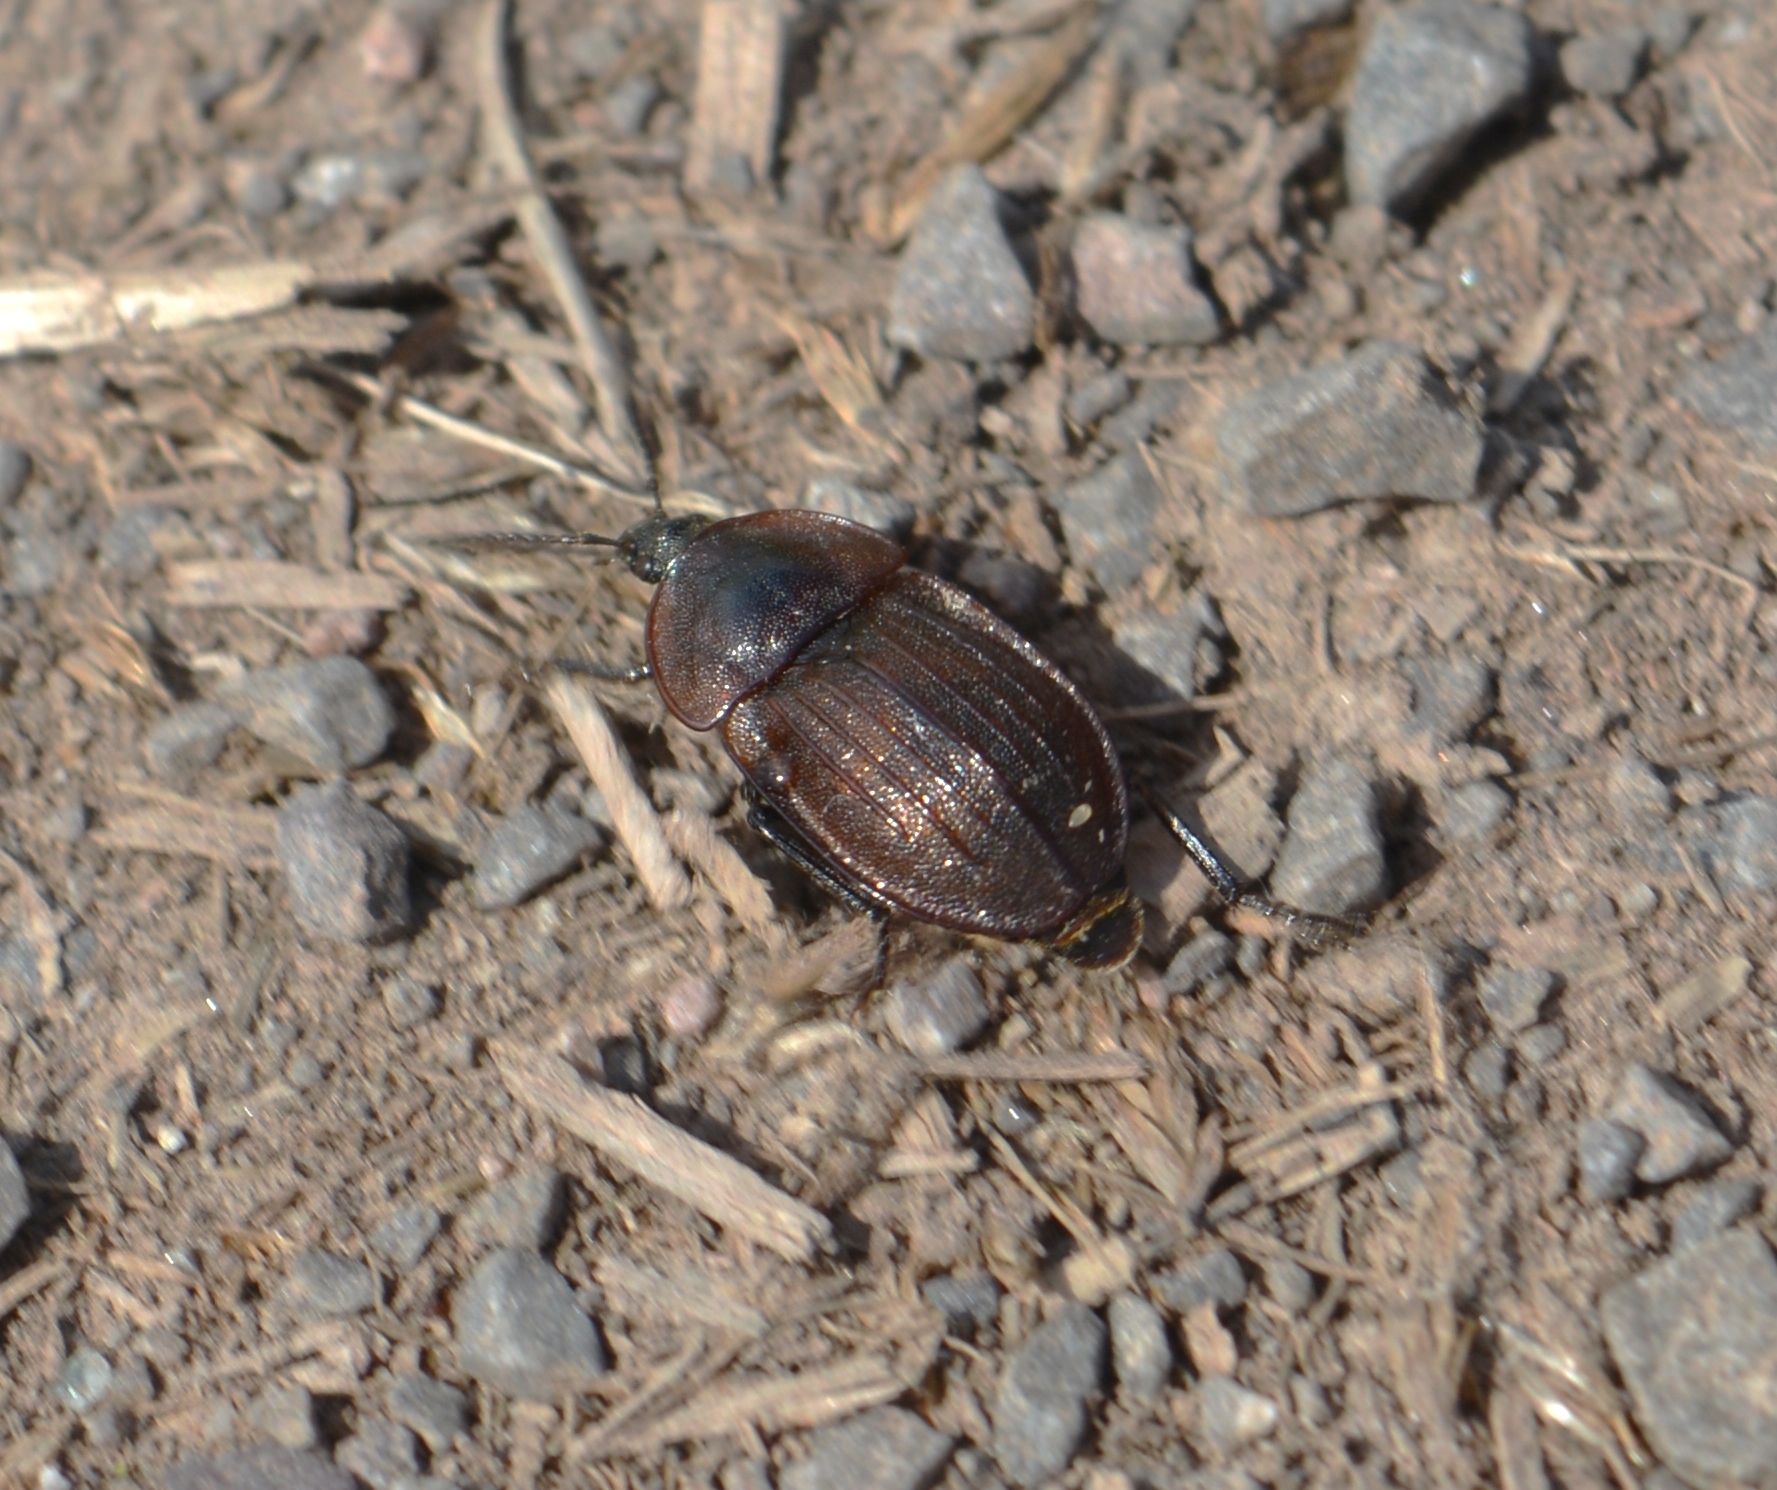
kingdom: Animalia
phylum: Arthropoda
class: Insecta
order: Coleoptera
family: Staphylinidae
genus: Silpha
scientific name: Silpha atrata
